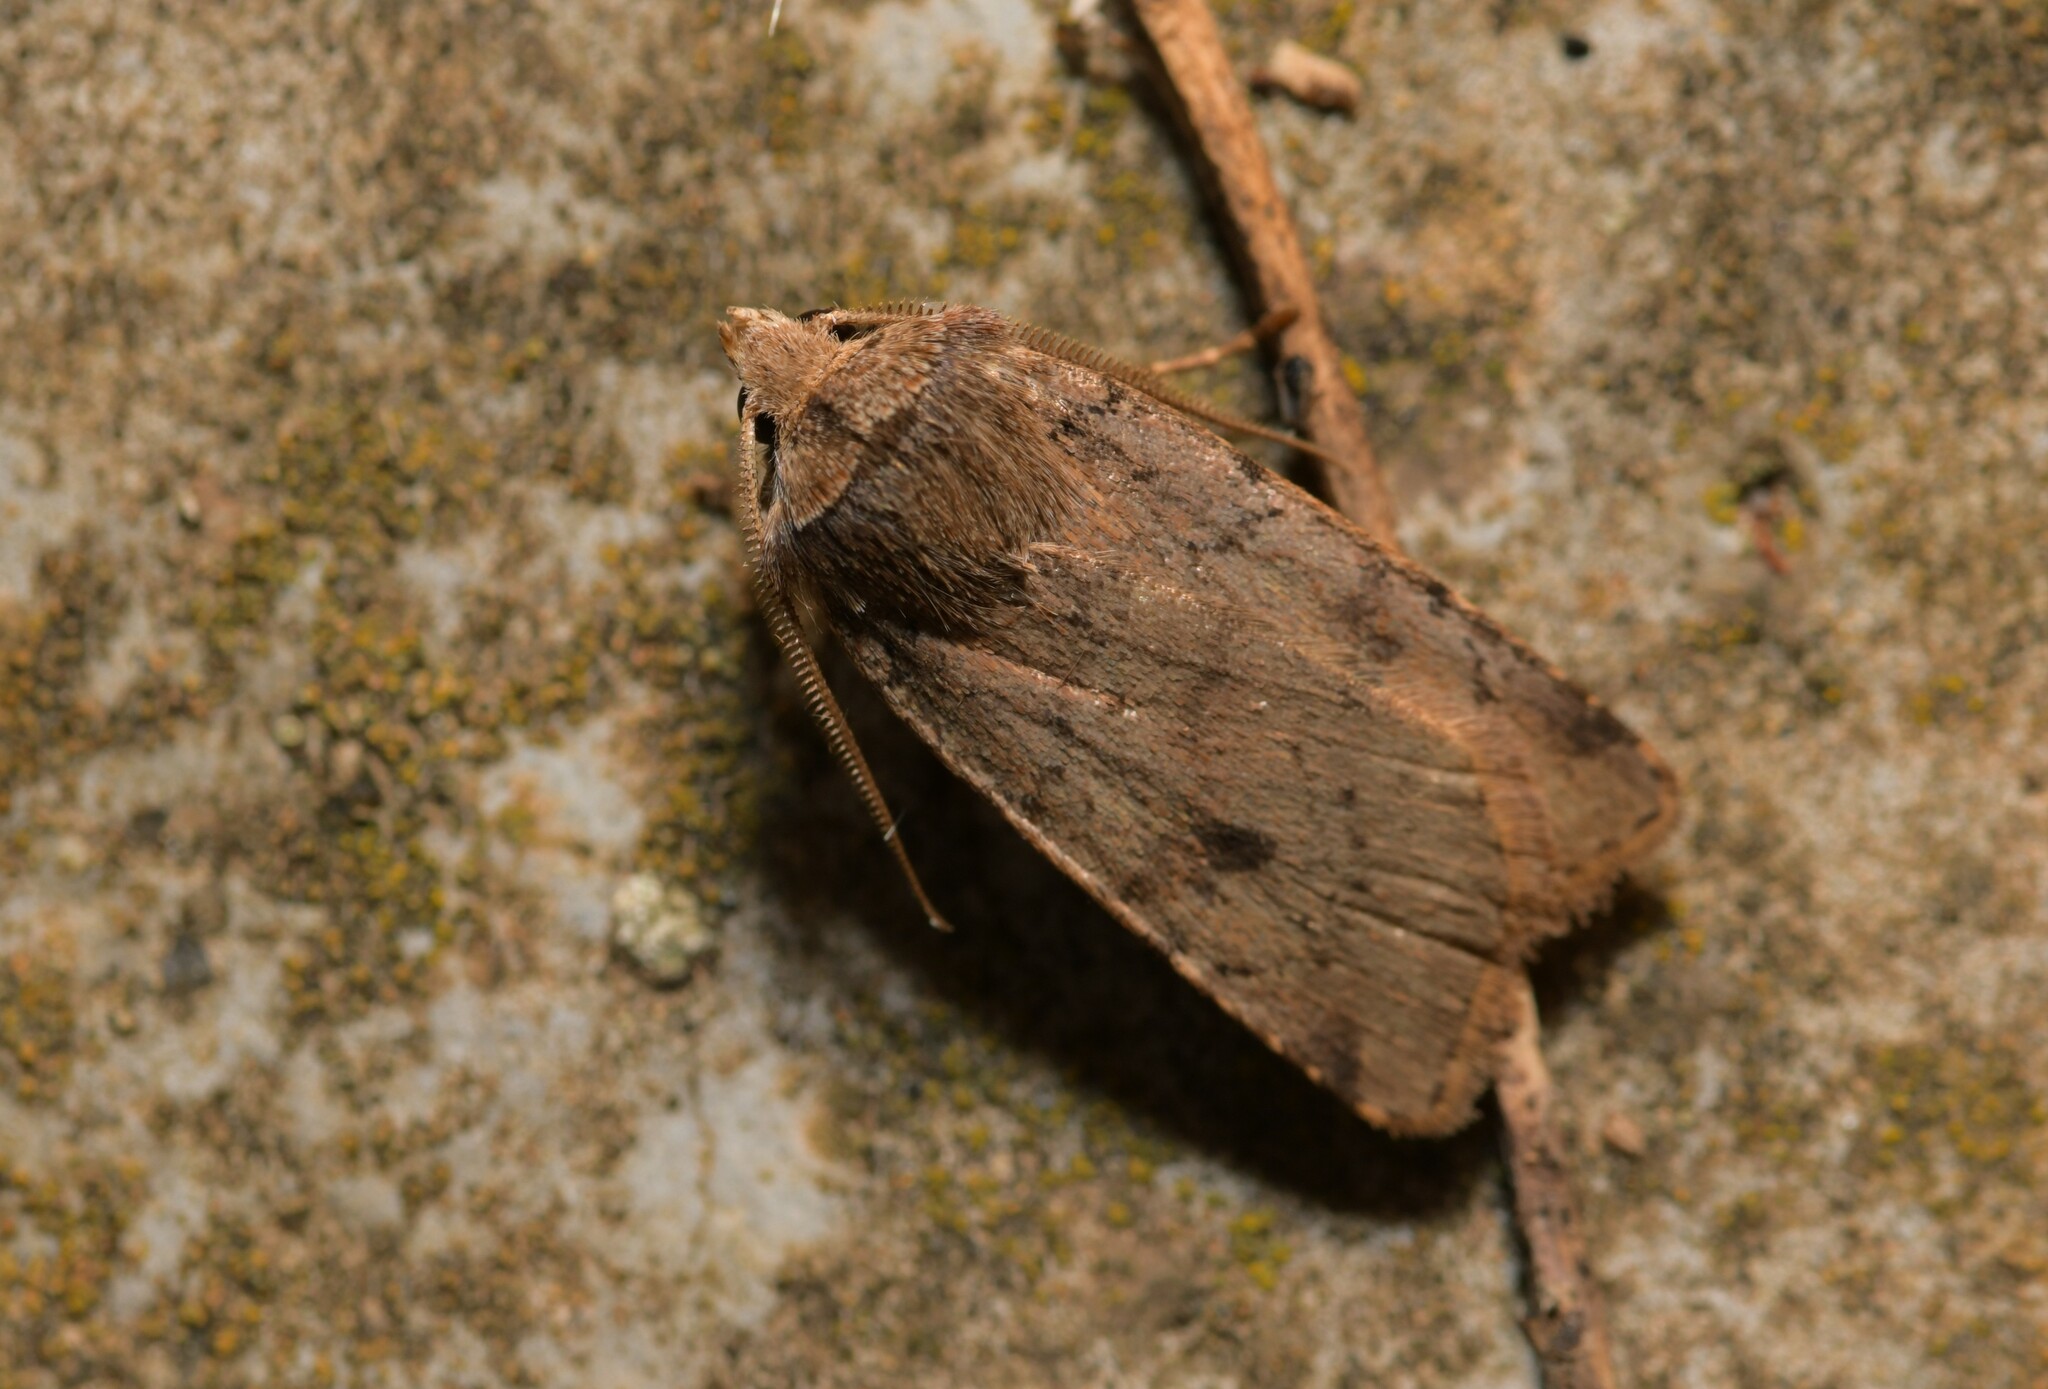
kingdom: Animalia
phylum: Arthropoda
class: Insecta
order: Lepidoptera
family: Noctuidae
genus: Cerastis
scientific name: Cerastis faceta
